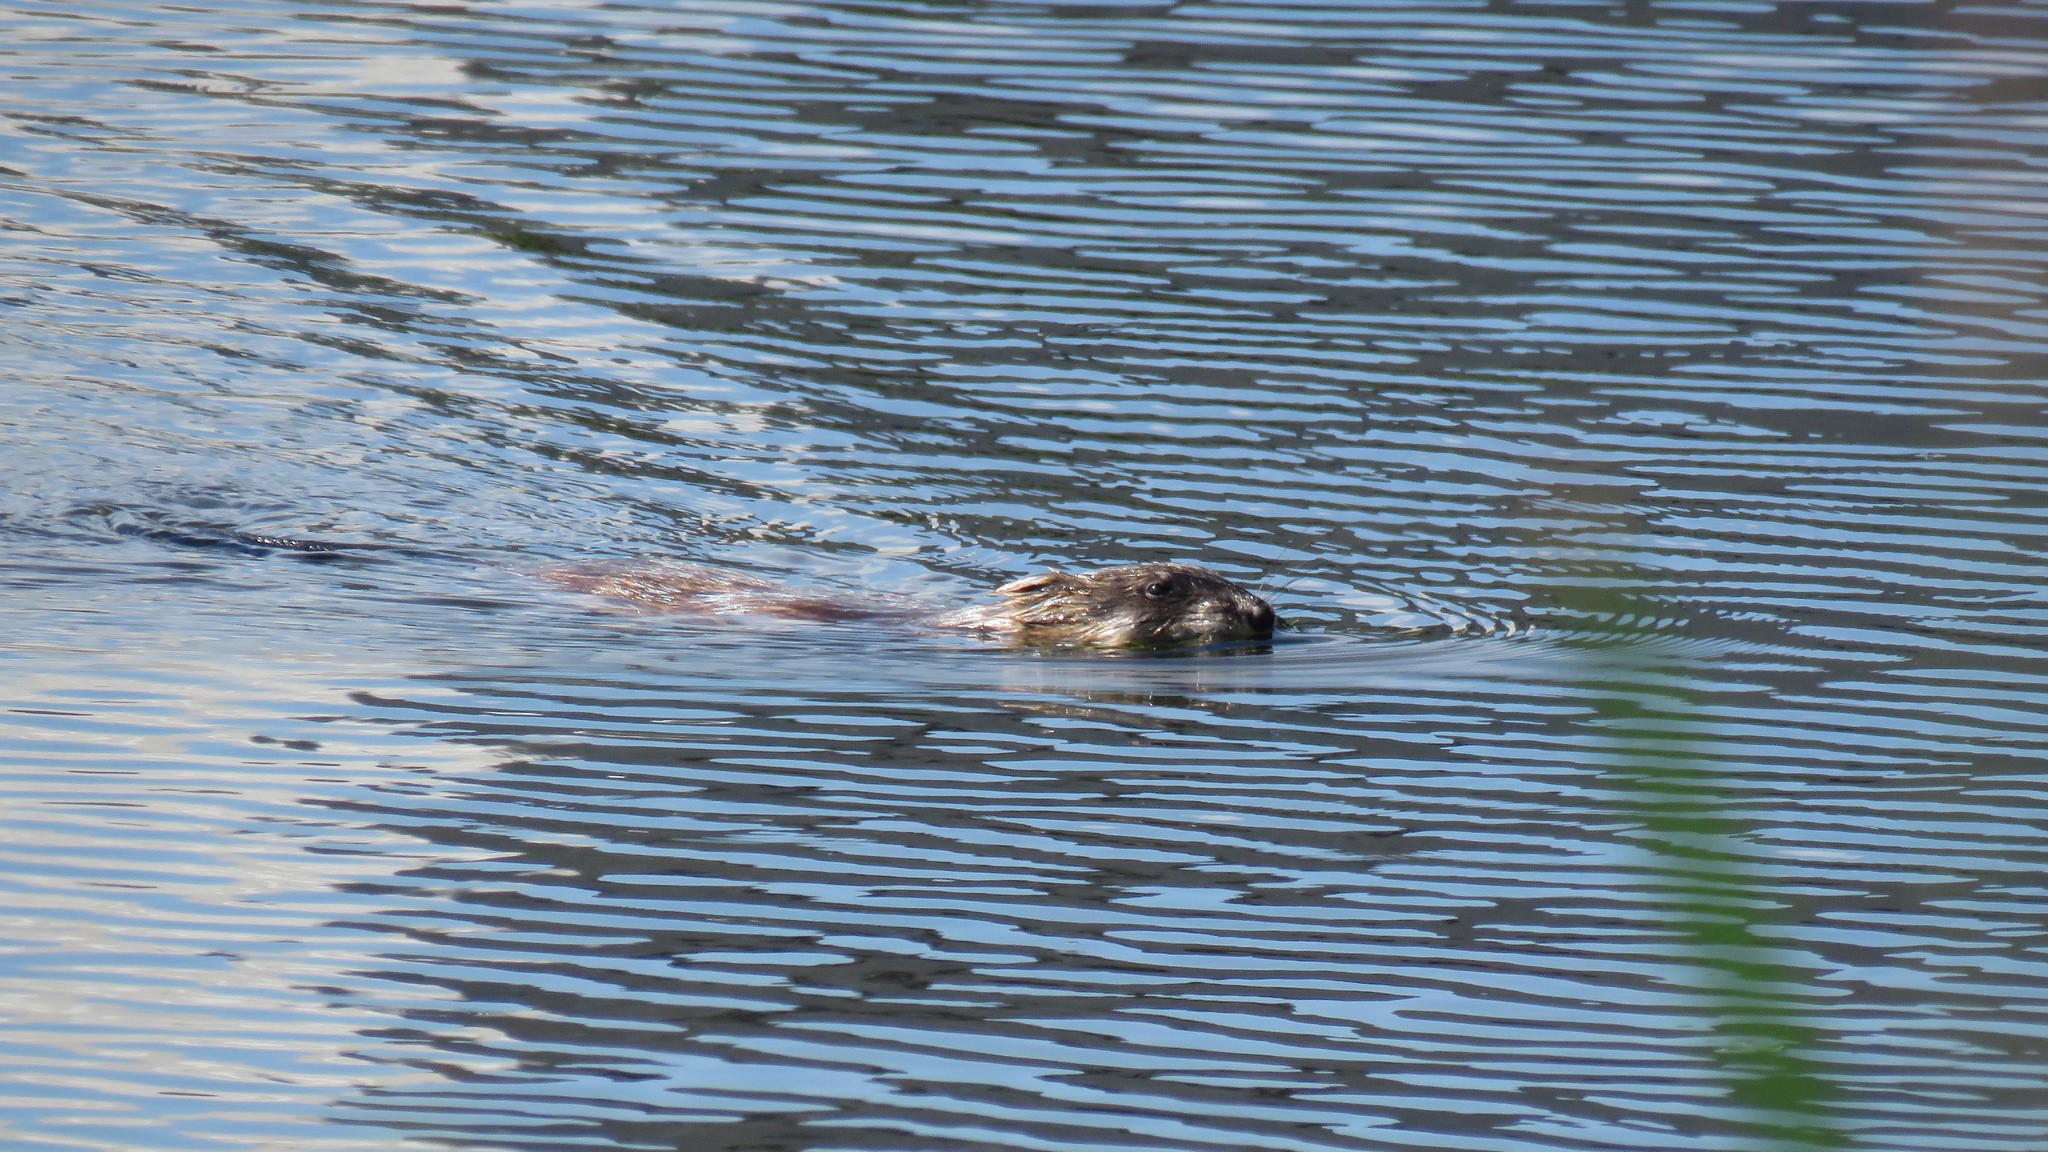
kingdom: Animalia
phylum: Chordata
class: Mammalia
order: Rodentia
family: Cricetidae
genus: Ondatra
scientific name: Ondatra zibethicus
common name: Muskrat
